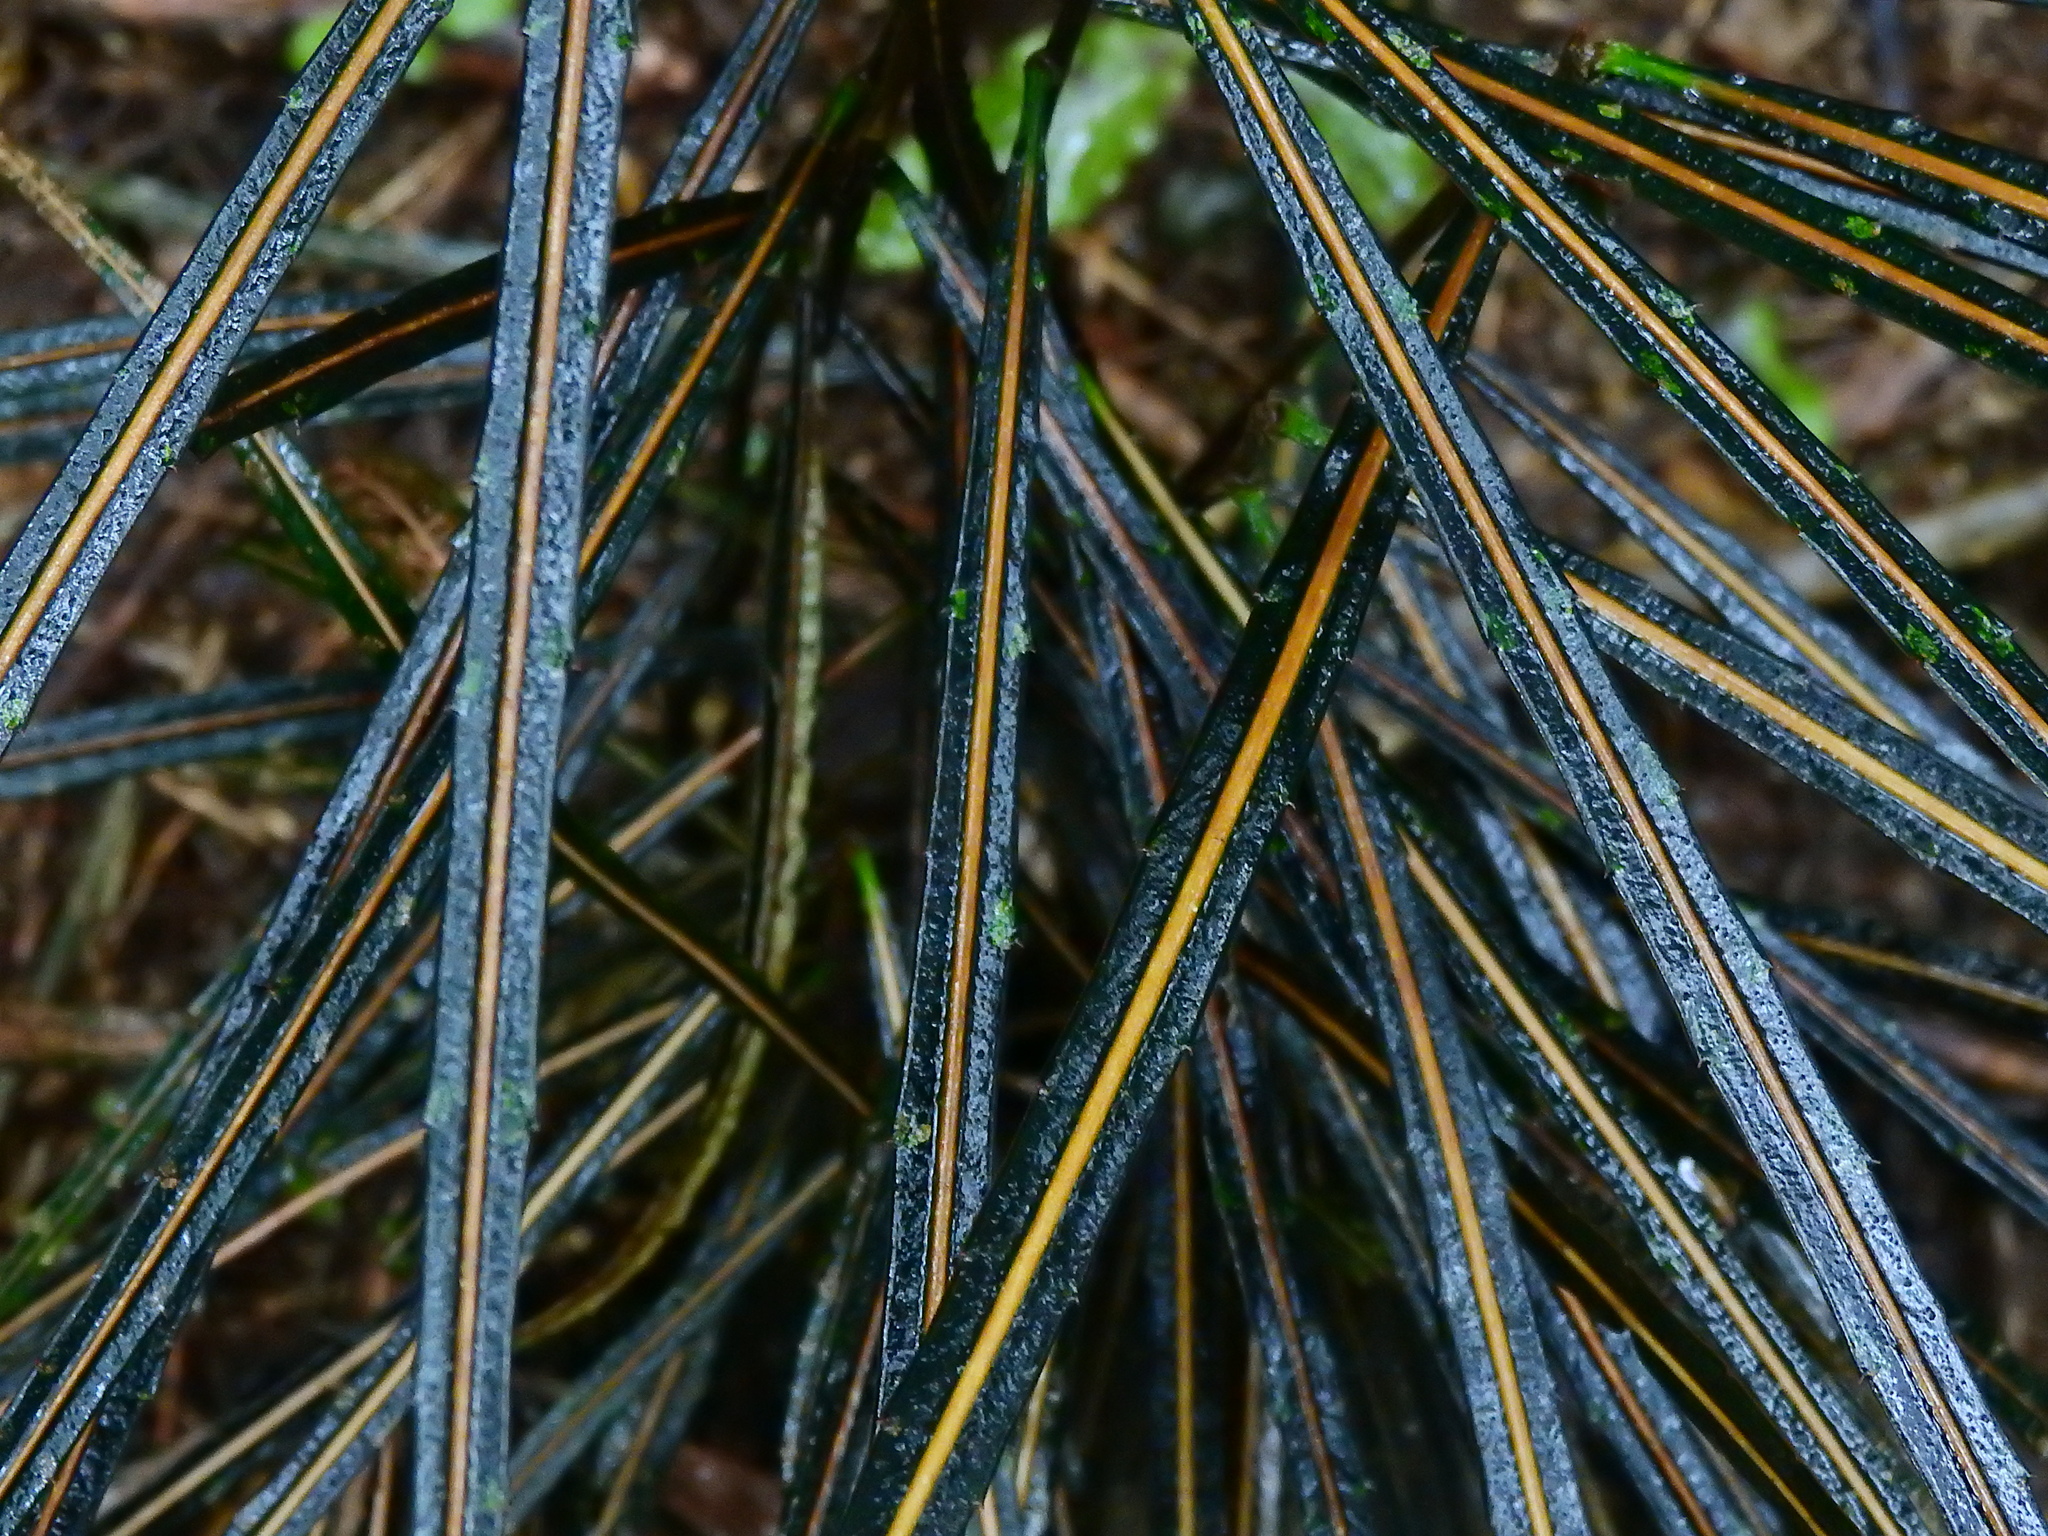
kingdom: Plantae
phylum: Tracheophyta
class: Magnoliopsida
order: Apiales
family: Araliaceae
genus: Pseudopanax
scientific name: Pseudopanax crassifolius
